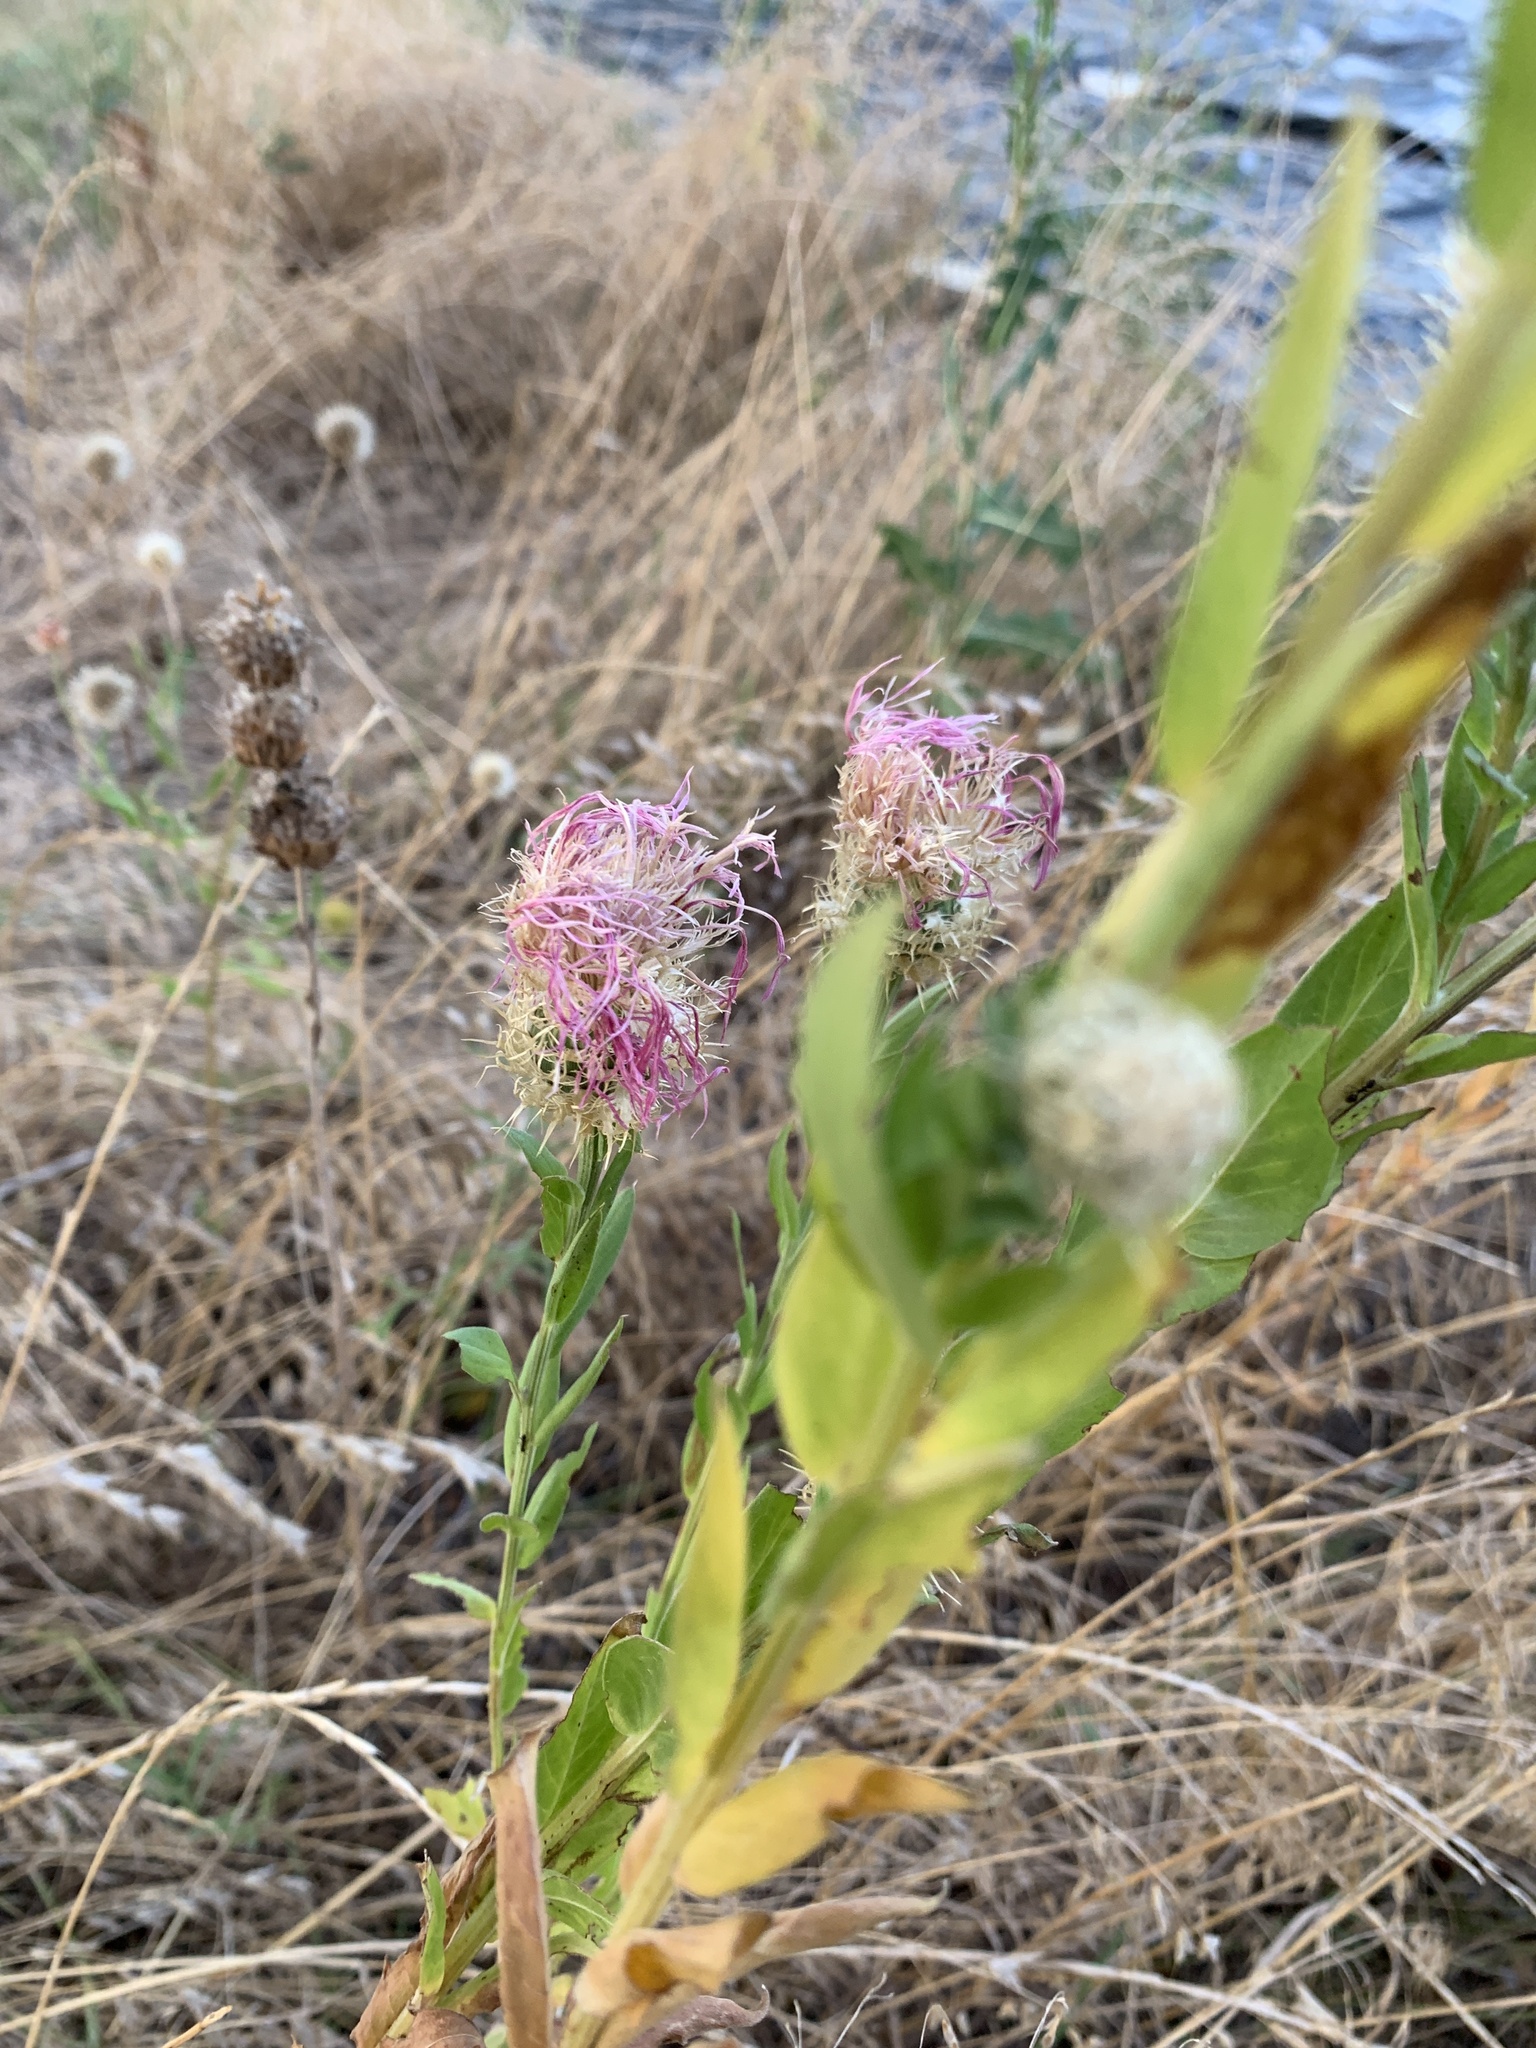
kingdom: Plantae
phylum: Tracheophyta
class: Magnoliopsida
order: Asterales
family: Asteraceae
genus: Plectocephalus
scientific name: Plectocephalus americanus
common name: American basket-flower
